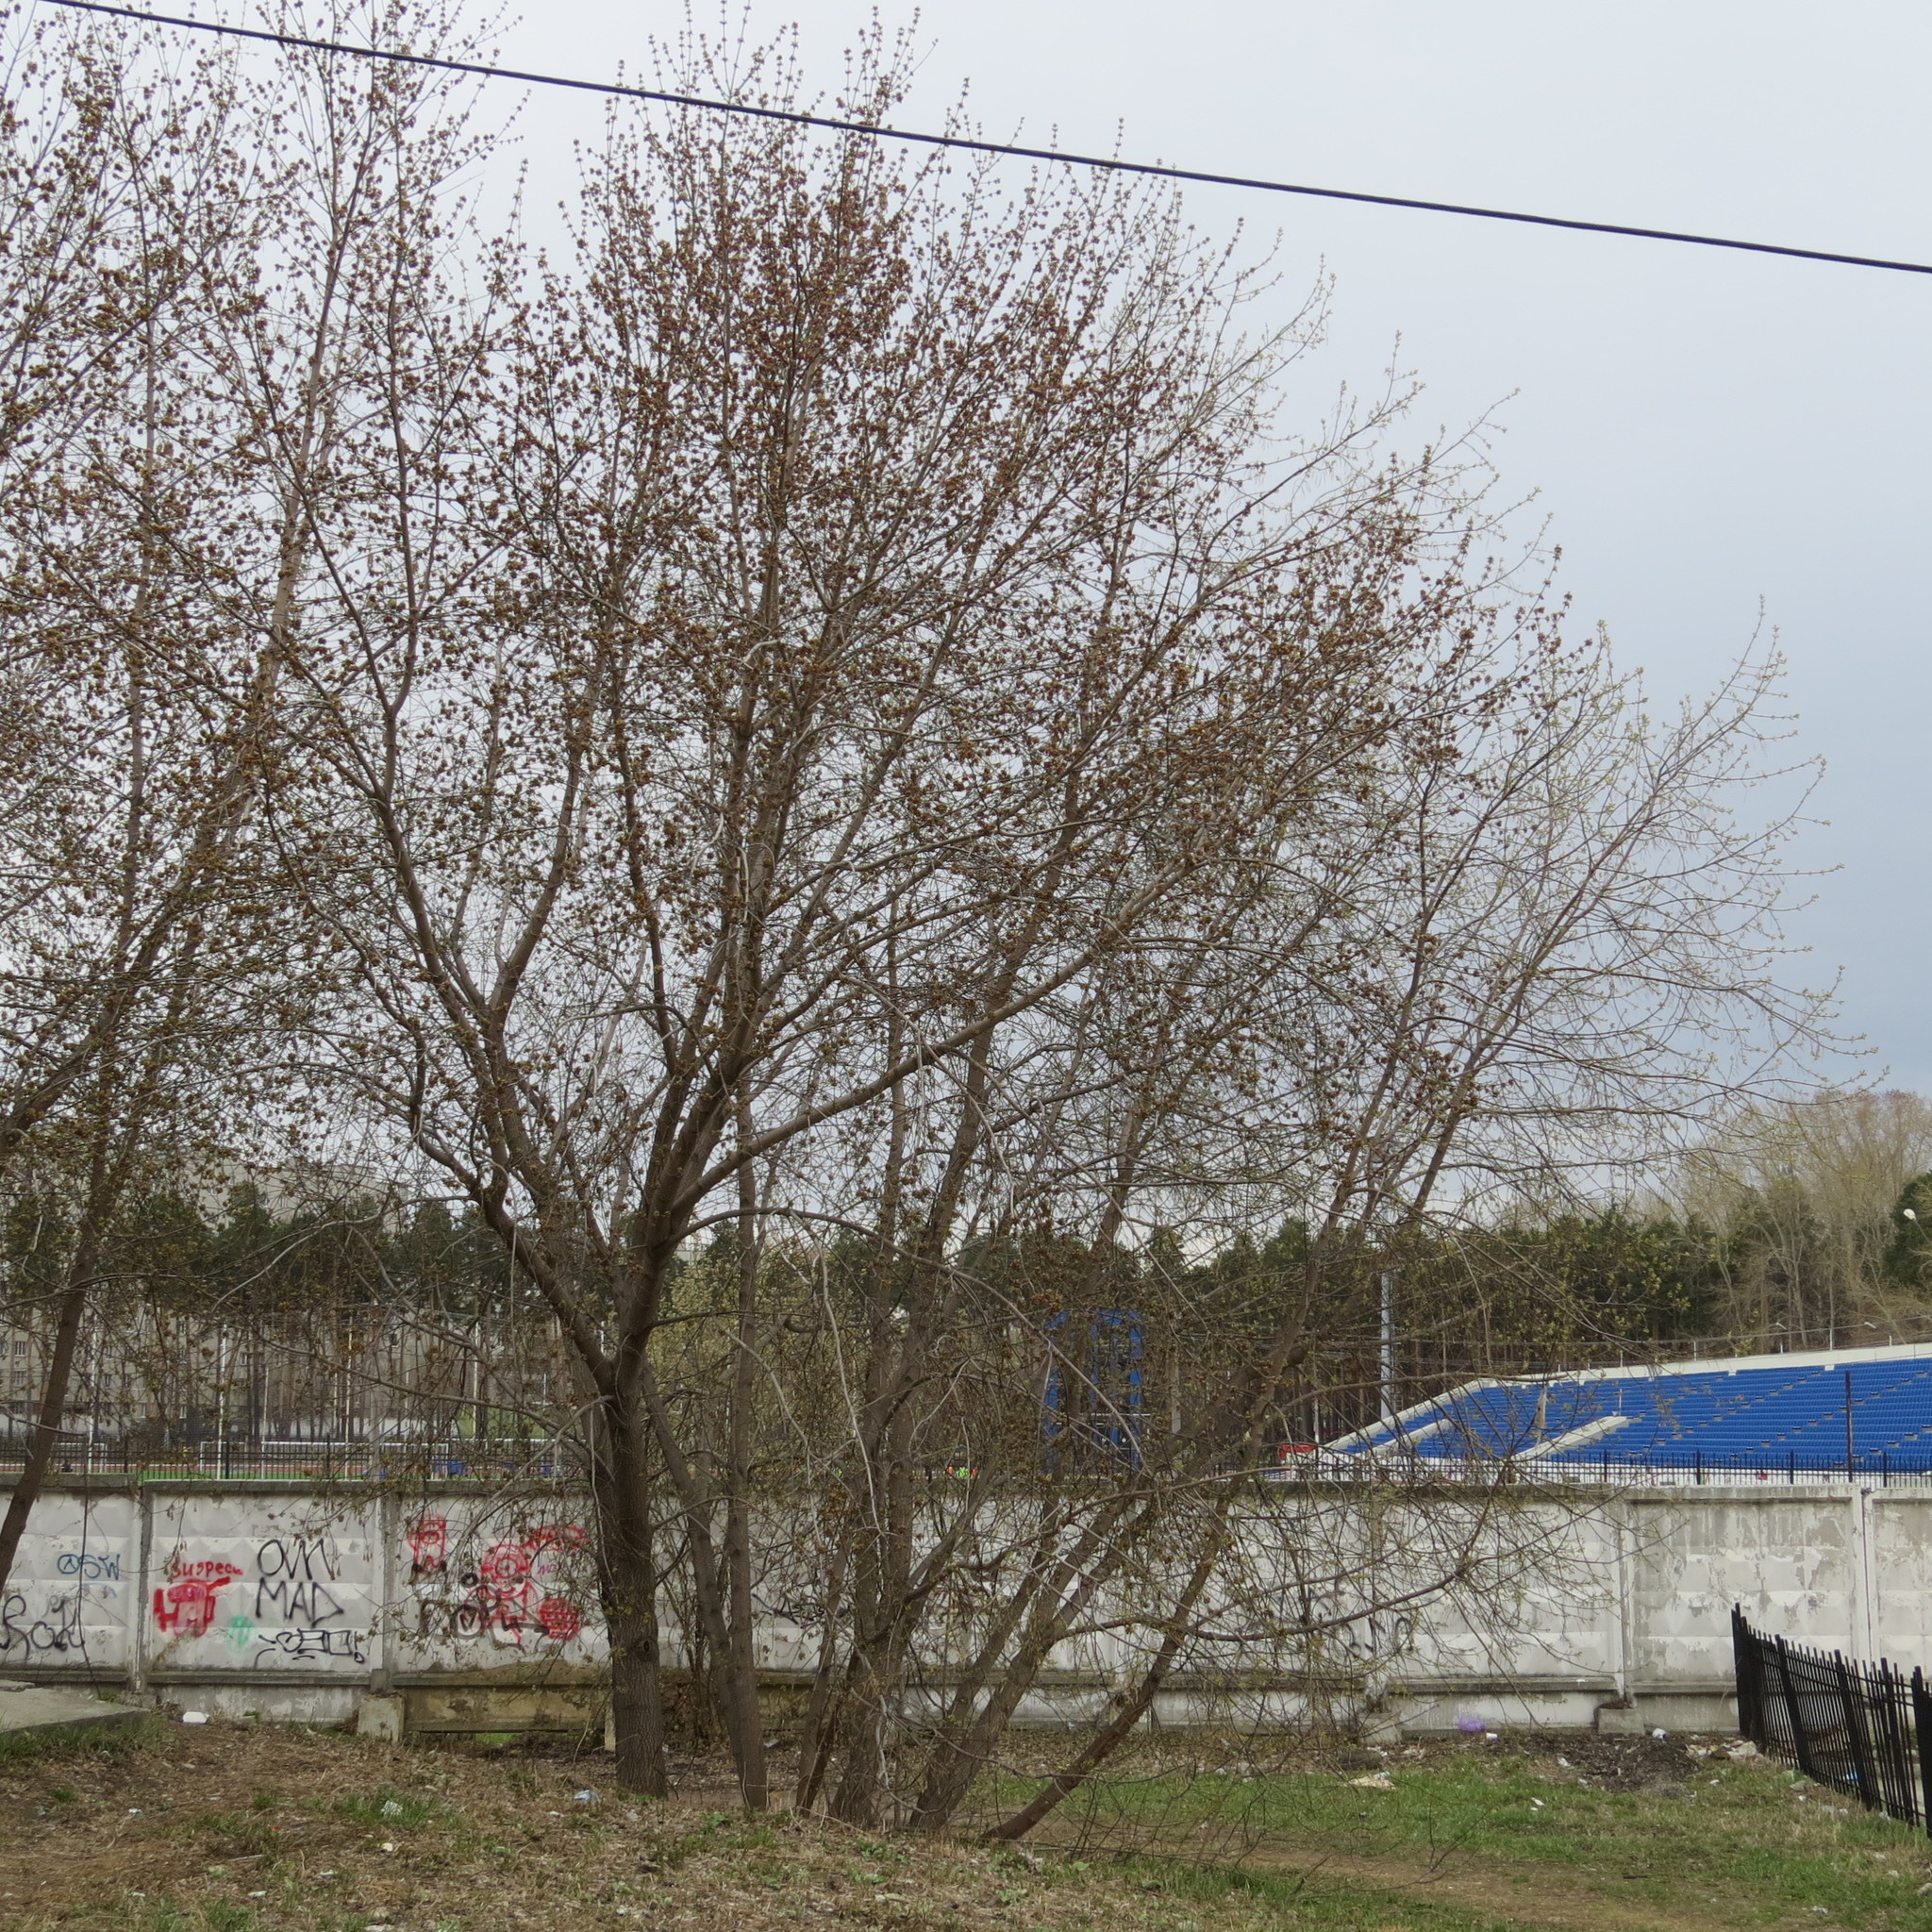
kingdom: Plantae
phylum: Tracheophyta
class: Magnoliopsida
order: Sapindales
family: Sapindaceae
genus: Acer
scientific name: Acer negundo
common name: Ashleaf maple
